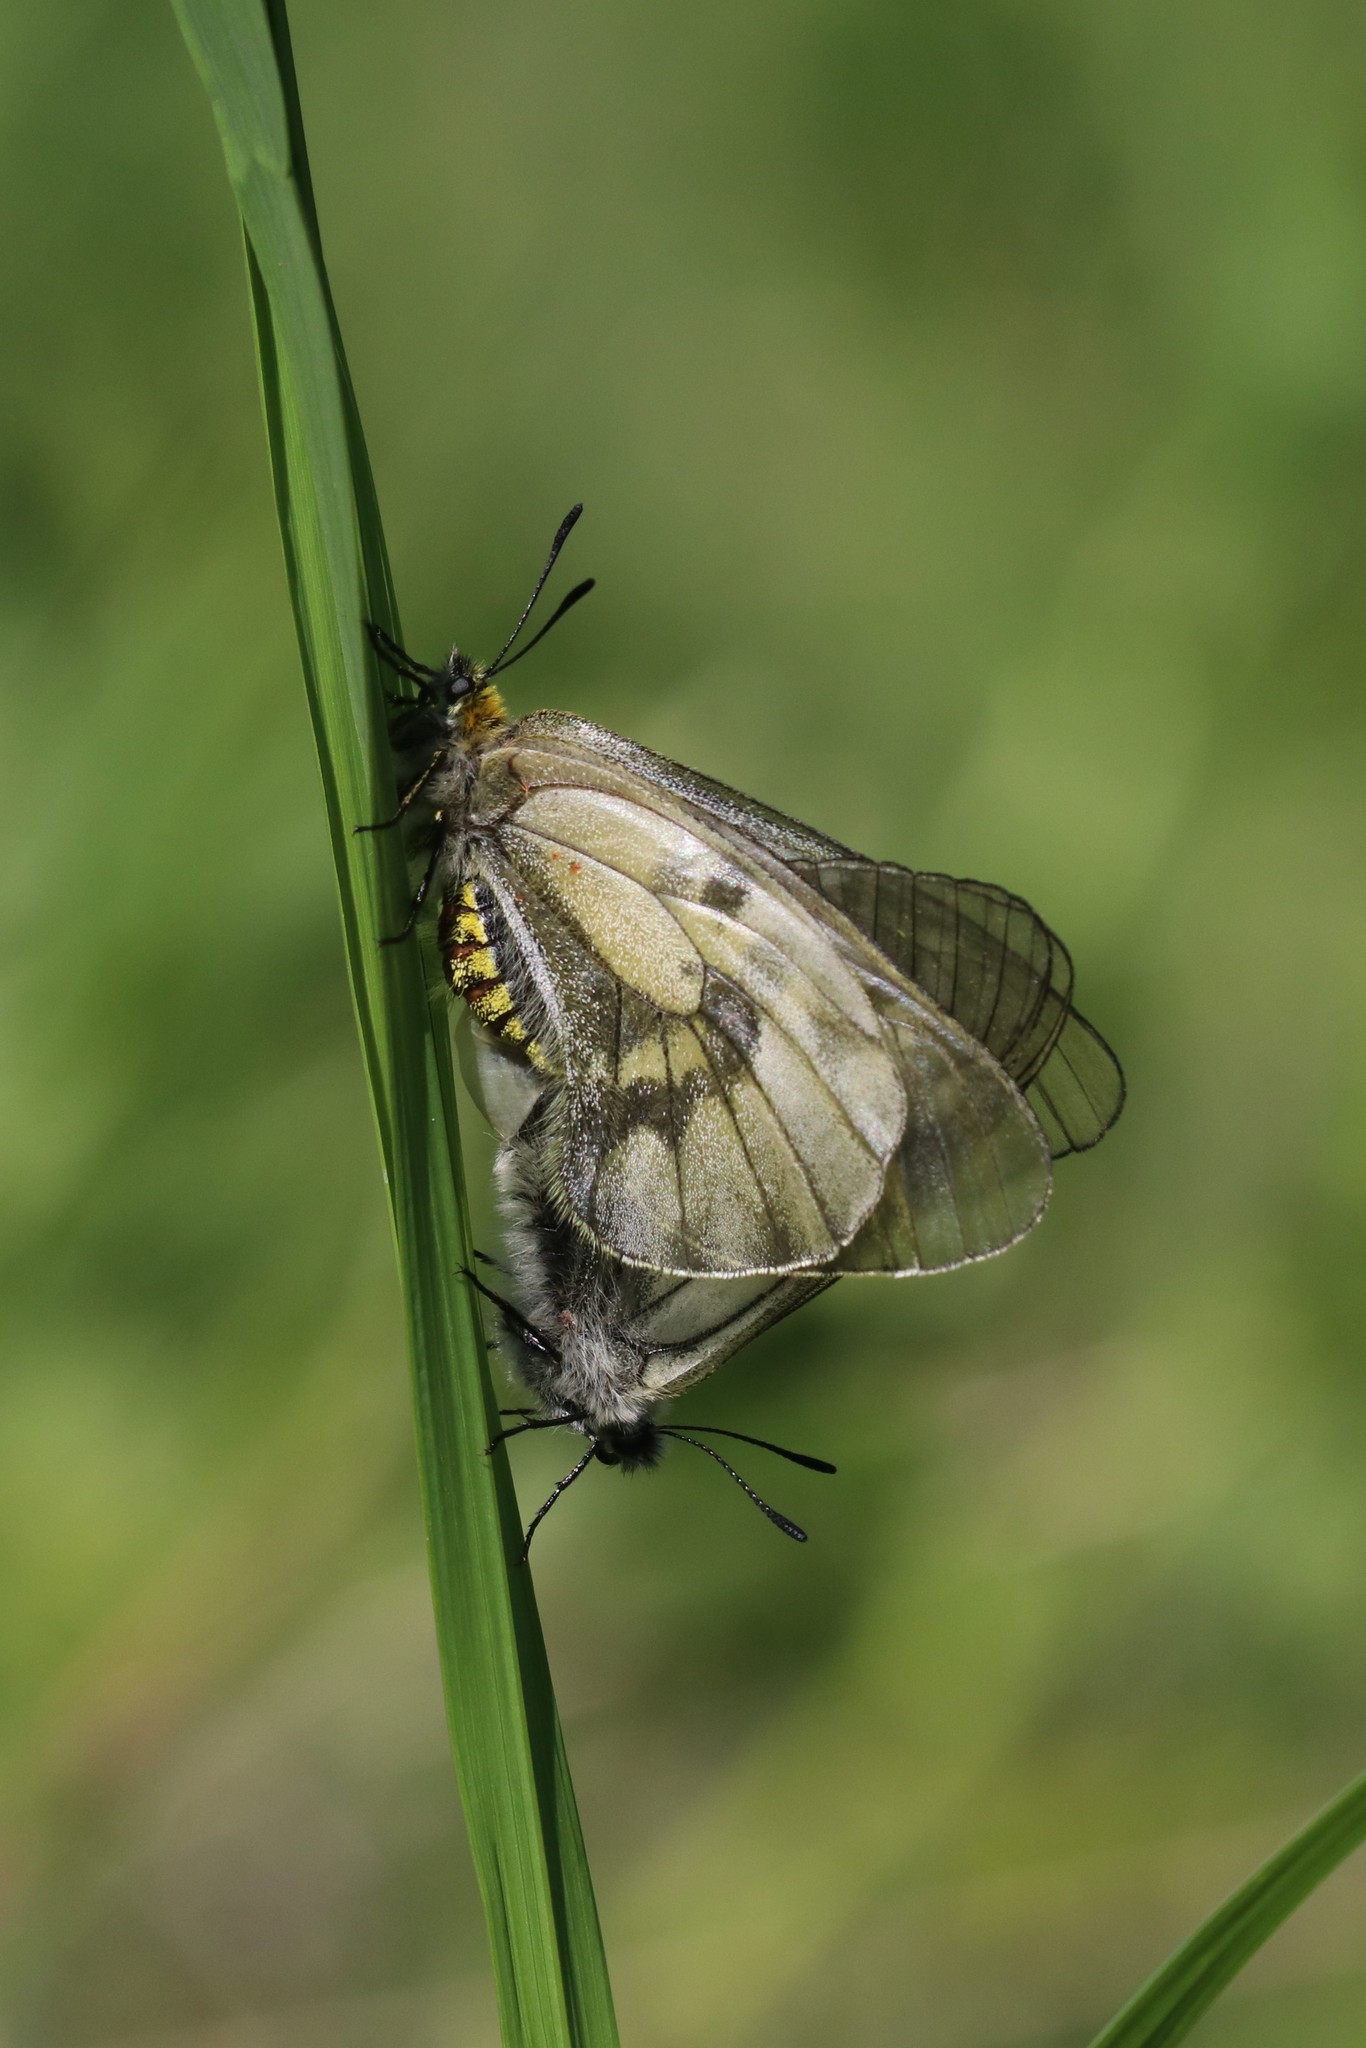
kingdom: Animalia
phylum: Arthropoda
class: Insecta
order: Lepidoptera
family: Papilionidae
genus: Parnassius
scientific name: Parnassius mnemosyne
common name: Clouded apollo
